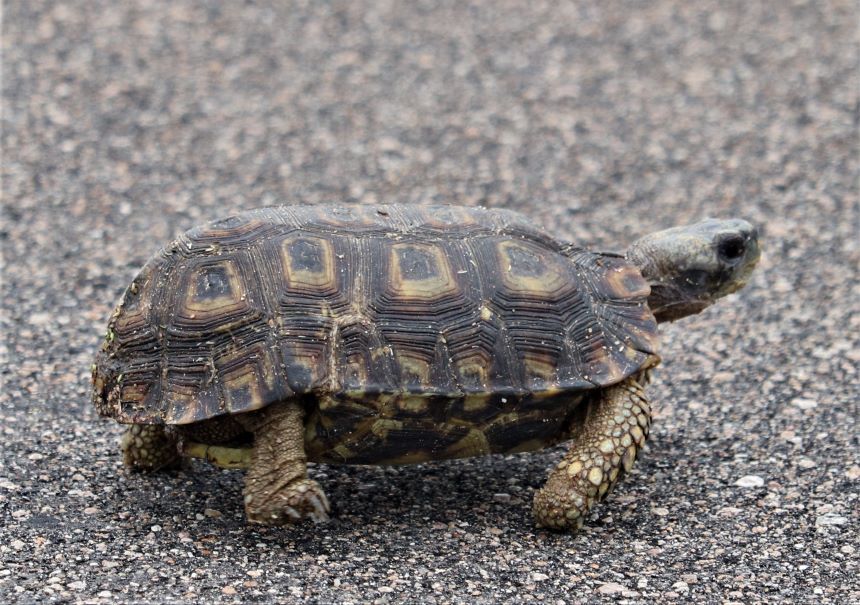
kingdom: Animalia
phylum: Chordata
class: Testudines
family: Testudinidae
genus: Kinixys
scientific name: Kinixys spekii
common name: Speke's hingeback tortoise
